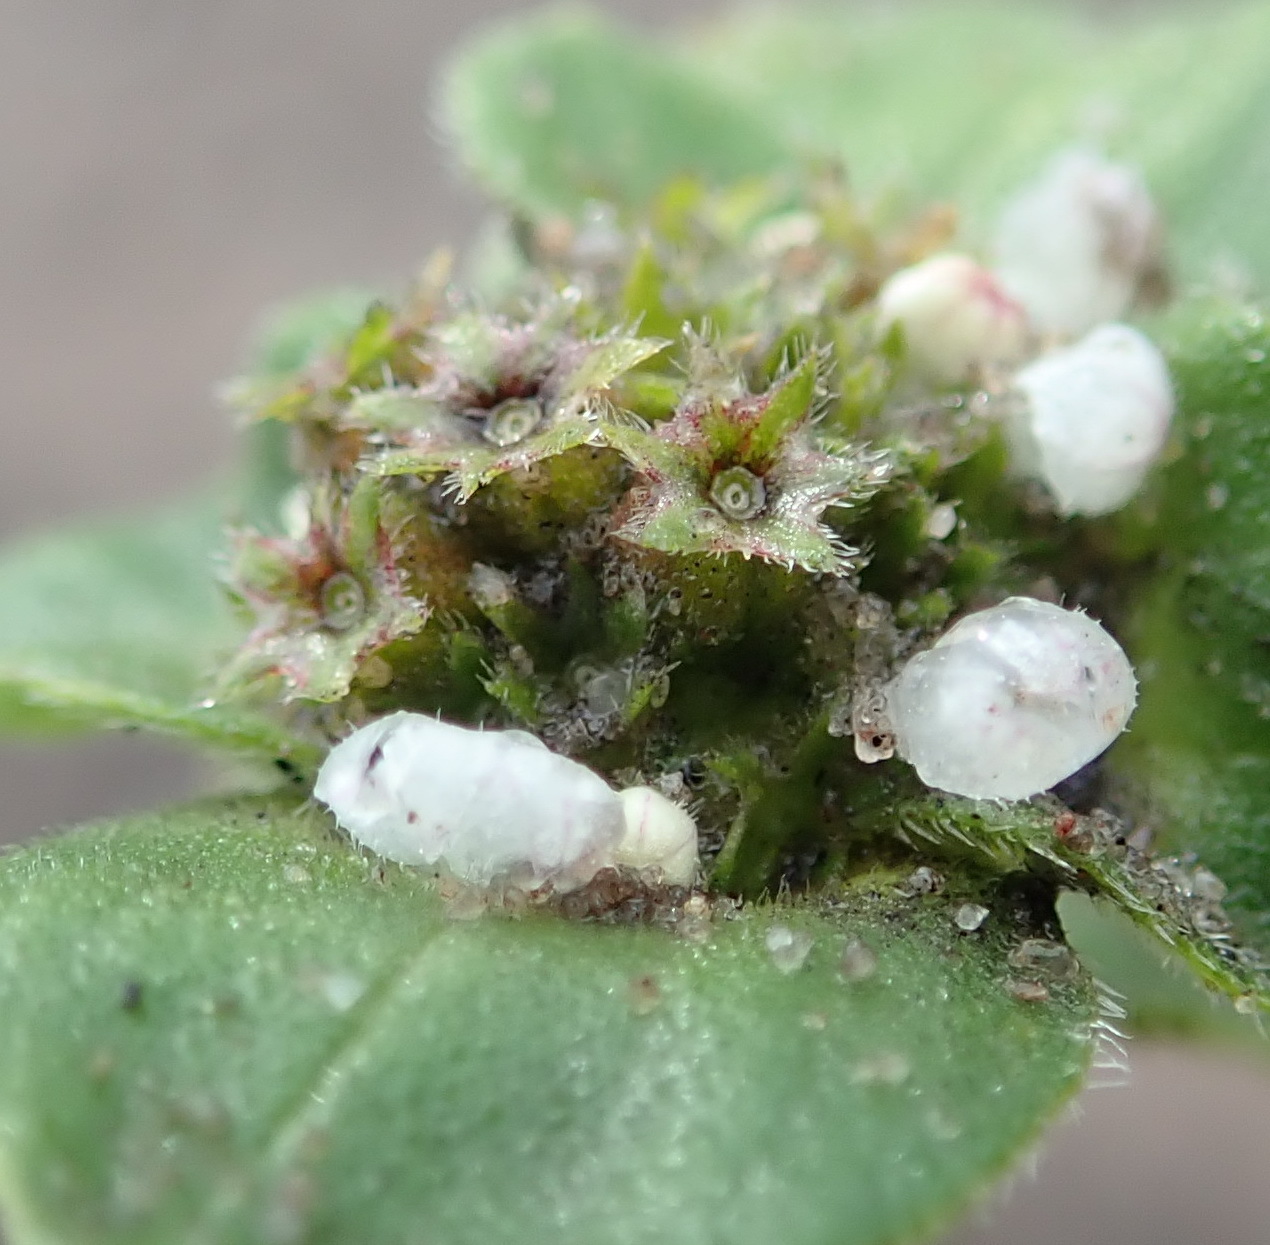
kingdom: Plantae
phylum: Tracheophyta
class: Magnoliopsida
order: Gentianales
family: Rubiaceae
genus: Richardia
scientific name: Richardia brasiliensis
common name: Tropical mexican clover
